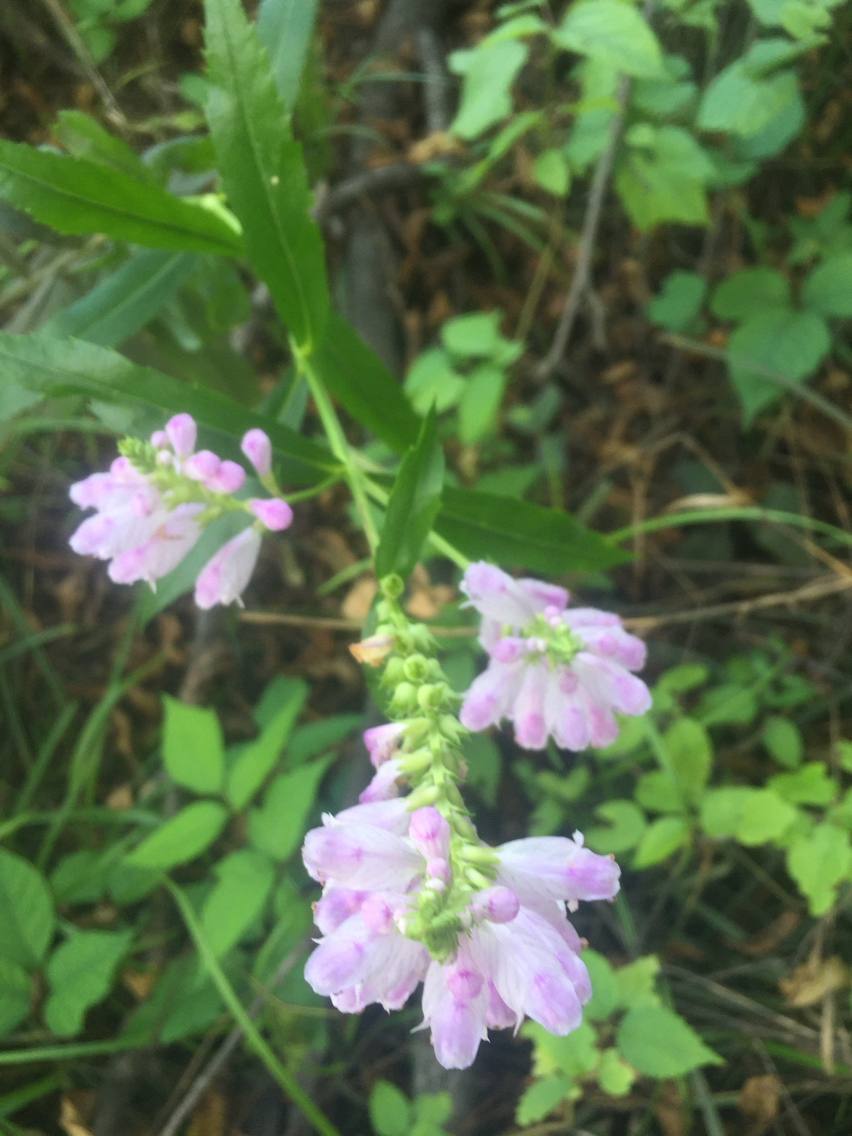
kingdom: Plantae
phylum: Tracheophyta
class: Magnoliopsida
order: Lamiales
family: Lamiaceae
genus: Physostegia
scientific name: Physostegia virginiana
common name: Obedient-plant
